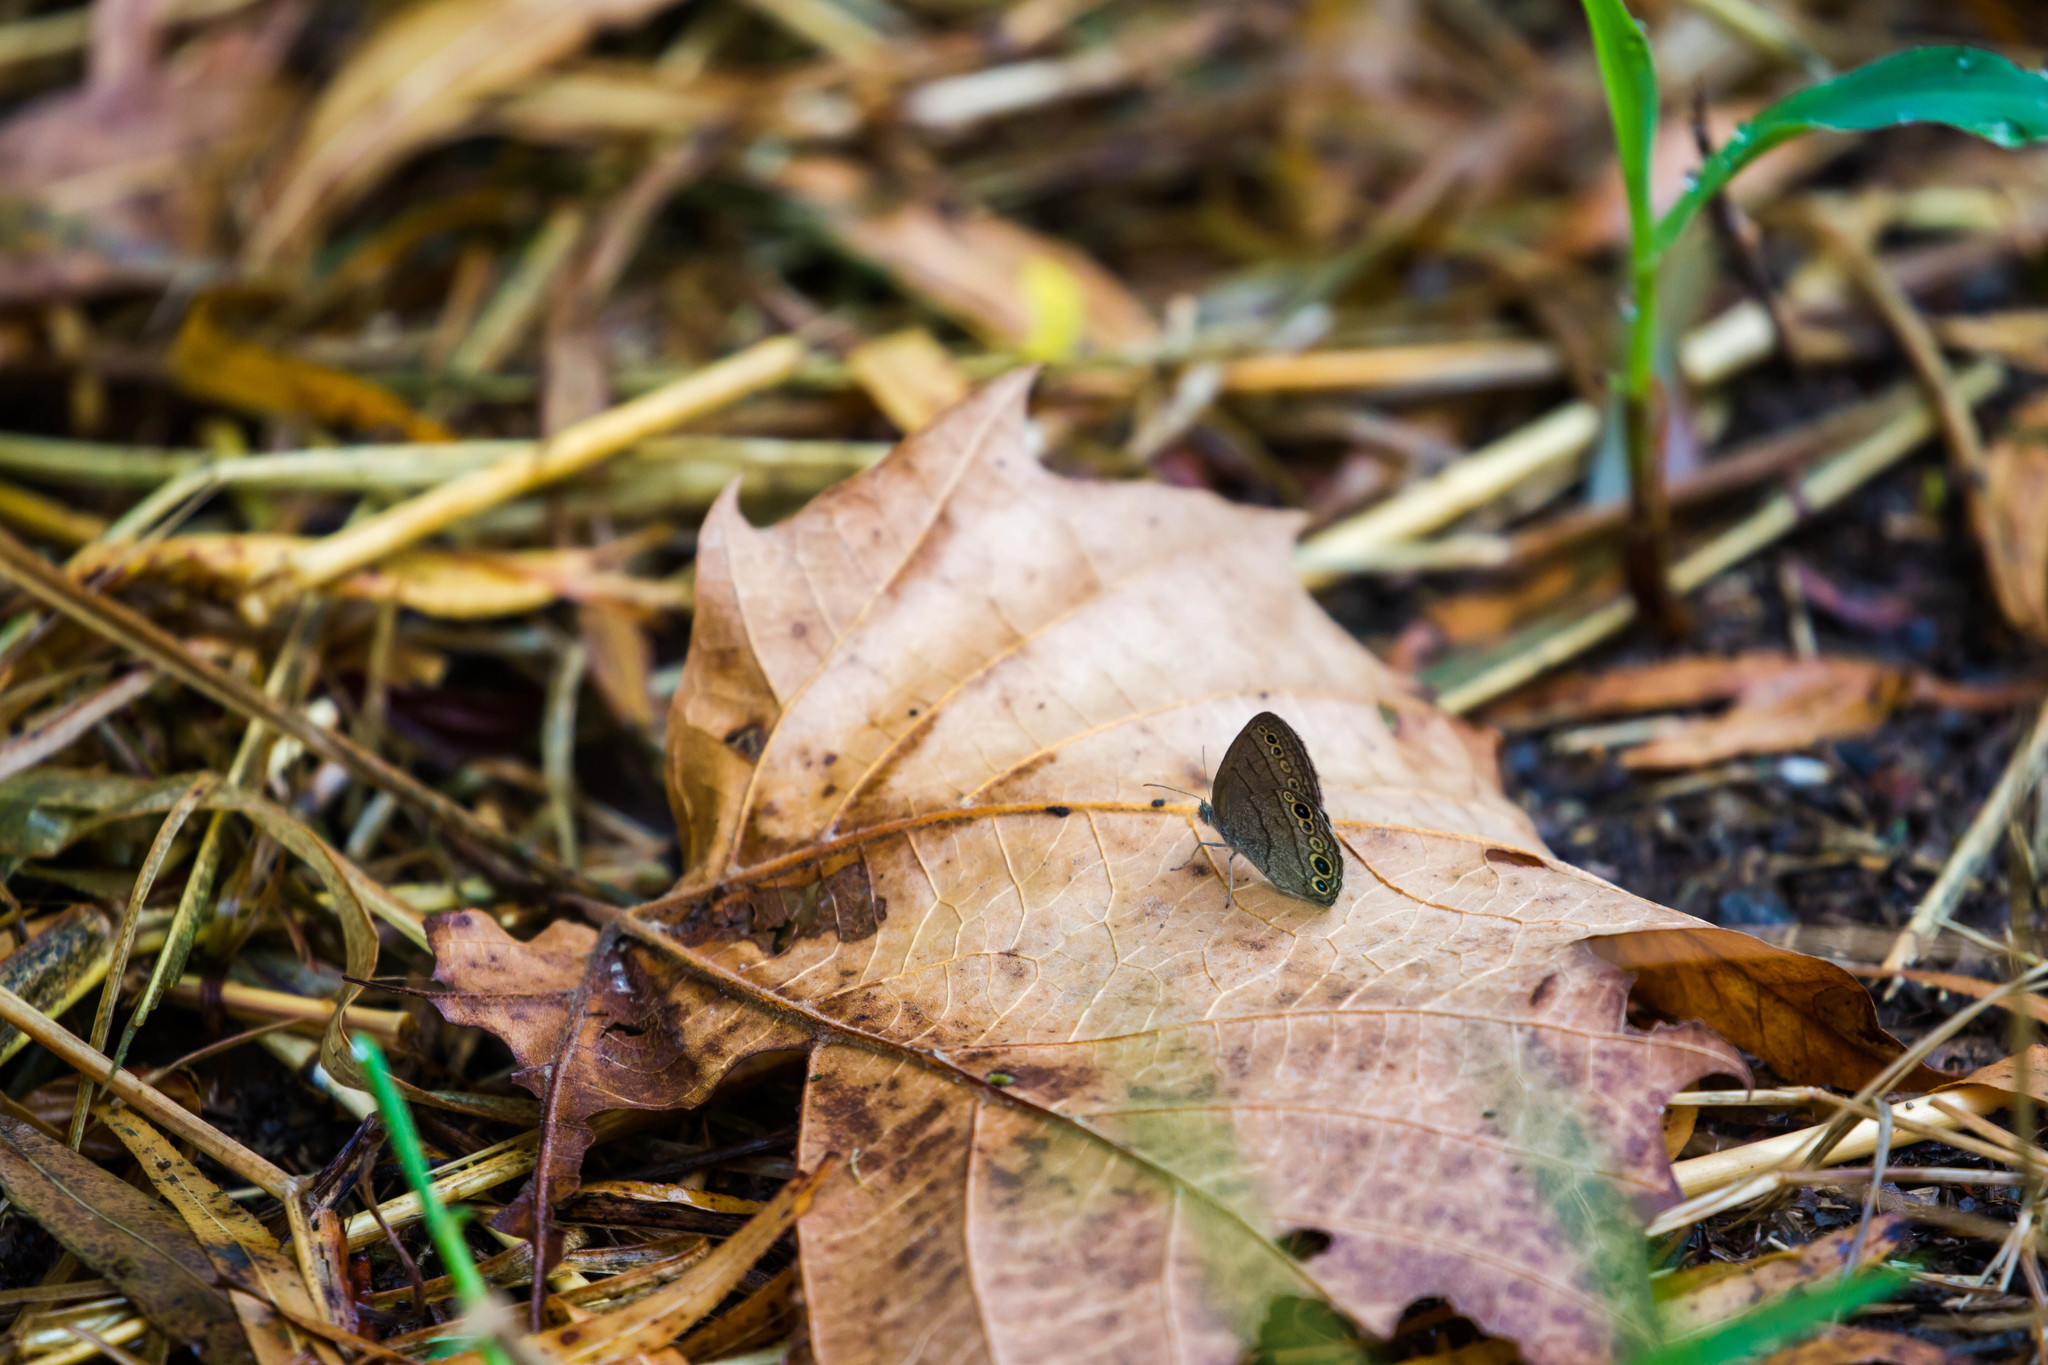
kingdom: Animalia
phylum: Arthropoda
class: Insecta
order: Lepidoptera
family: Nymphalidae
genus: Hermeuptychia
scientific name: Hermeuptychia hermes
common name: Hermes satyr
